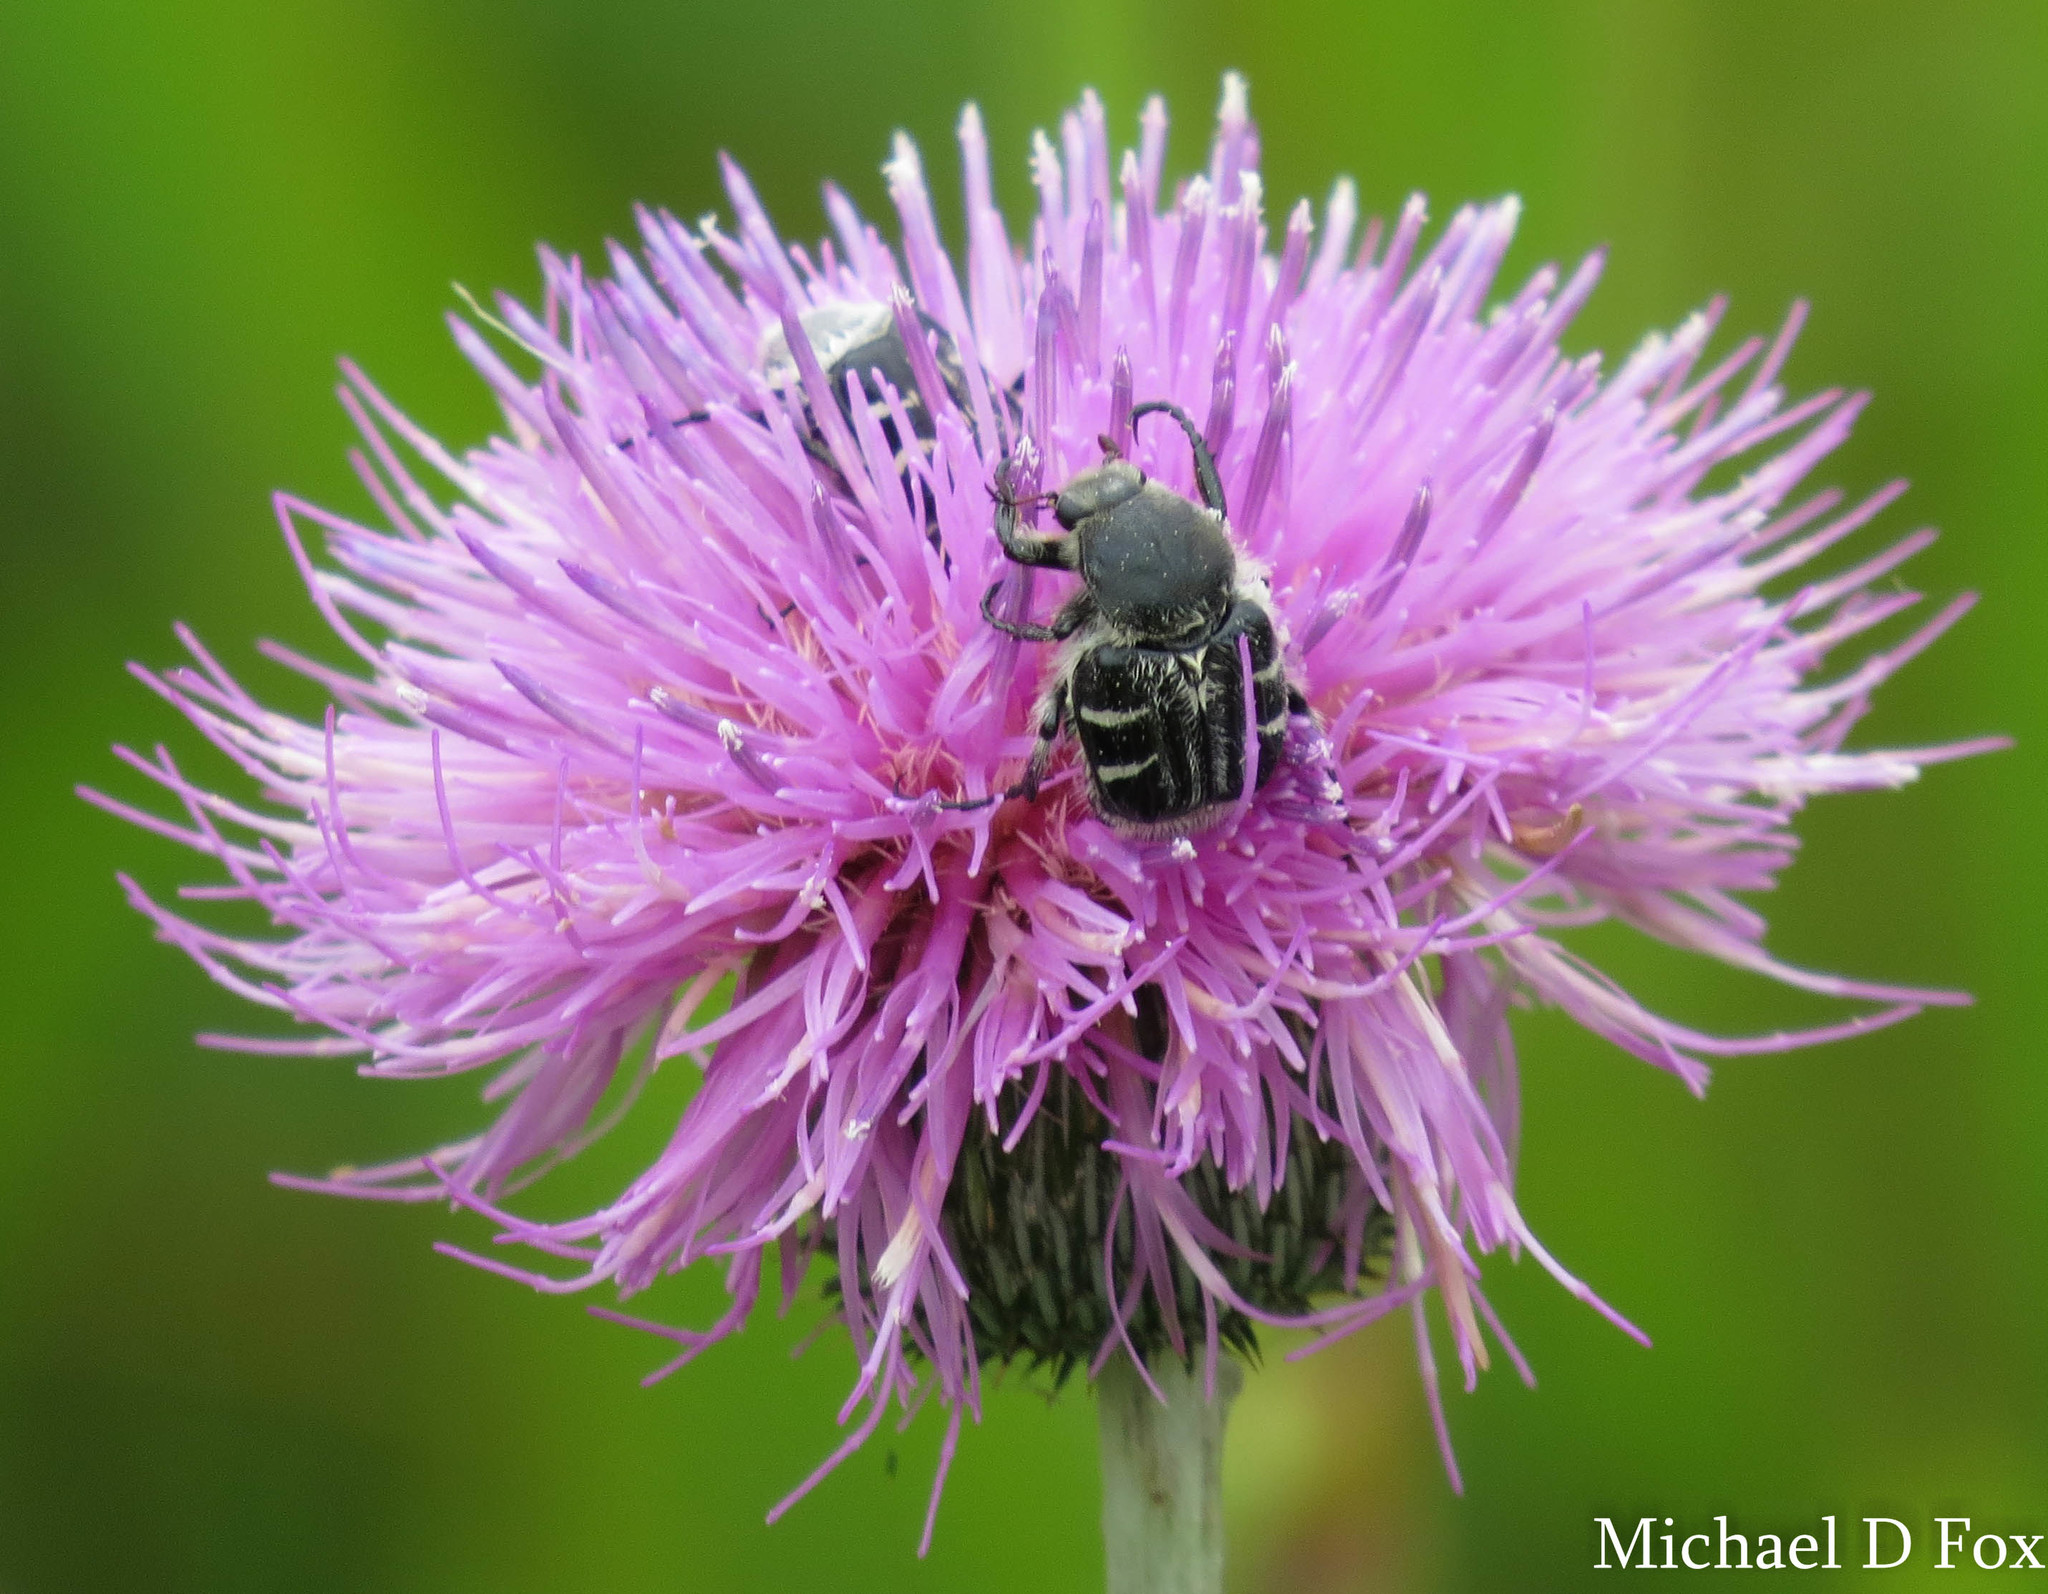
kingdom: Animalia
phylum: Arthropoda
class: Insecta
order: Coleoptera
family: Scarabaeidae
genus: Trichiotinus
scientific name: Trichiotinus texanus
